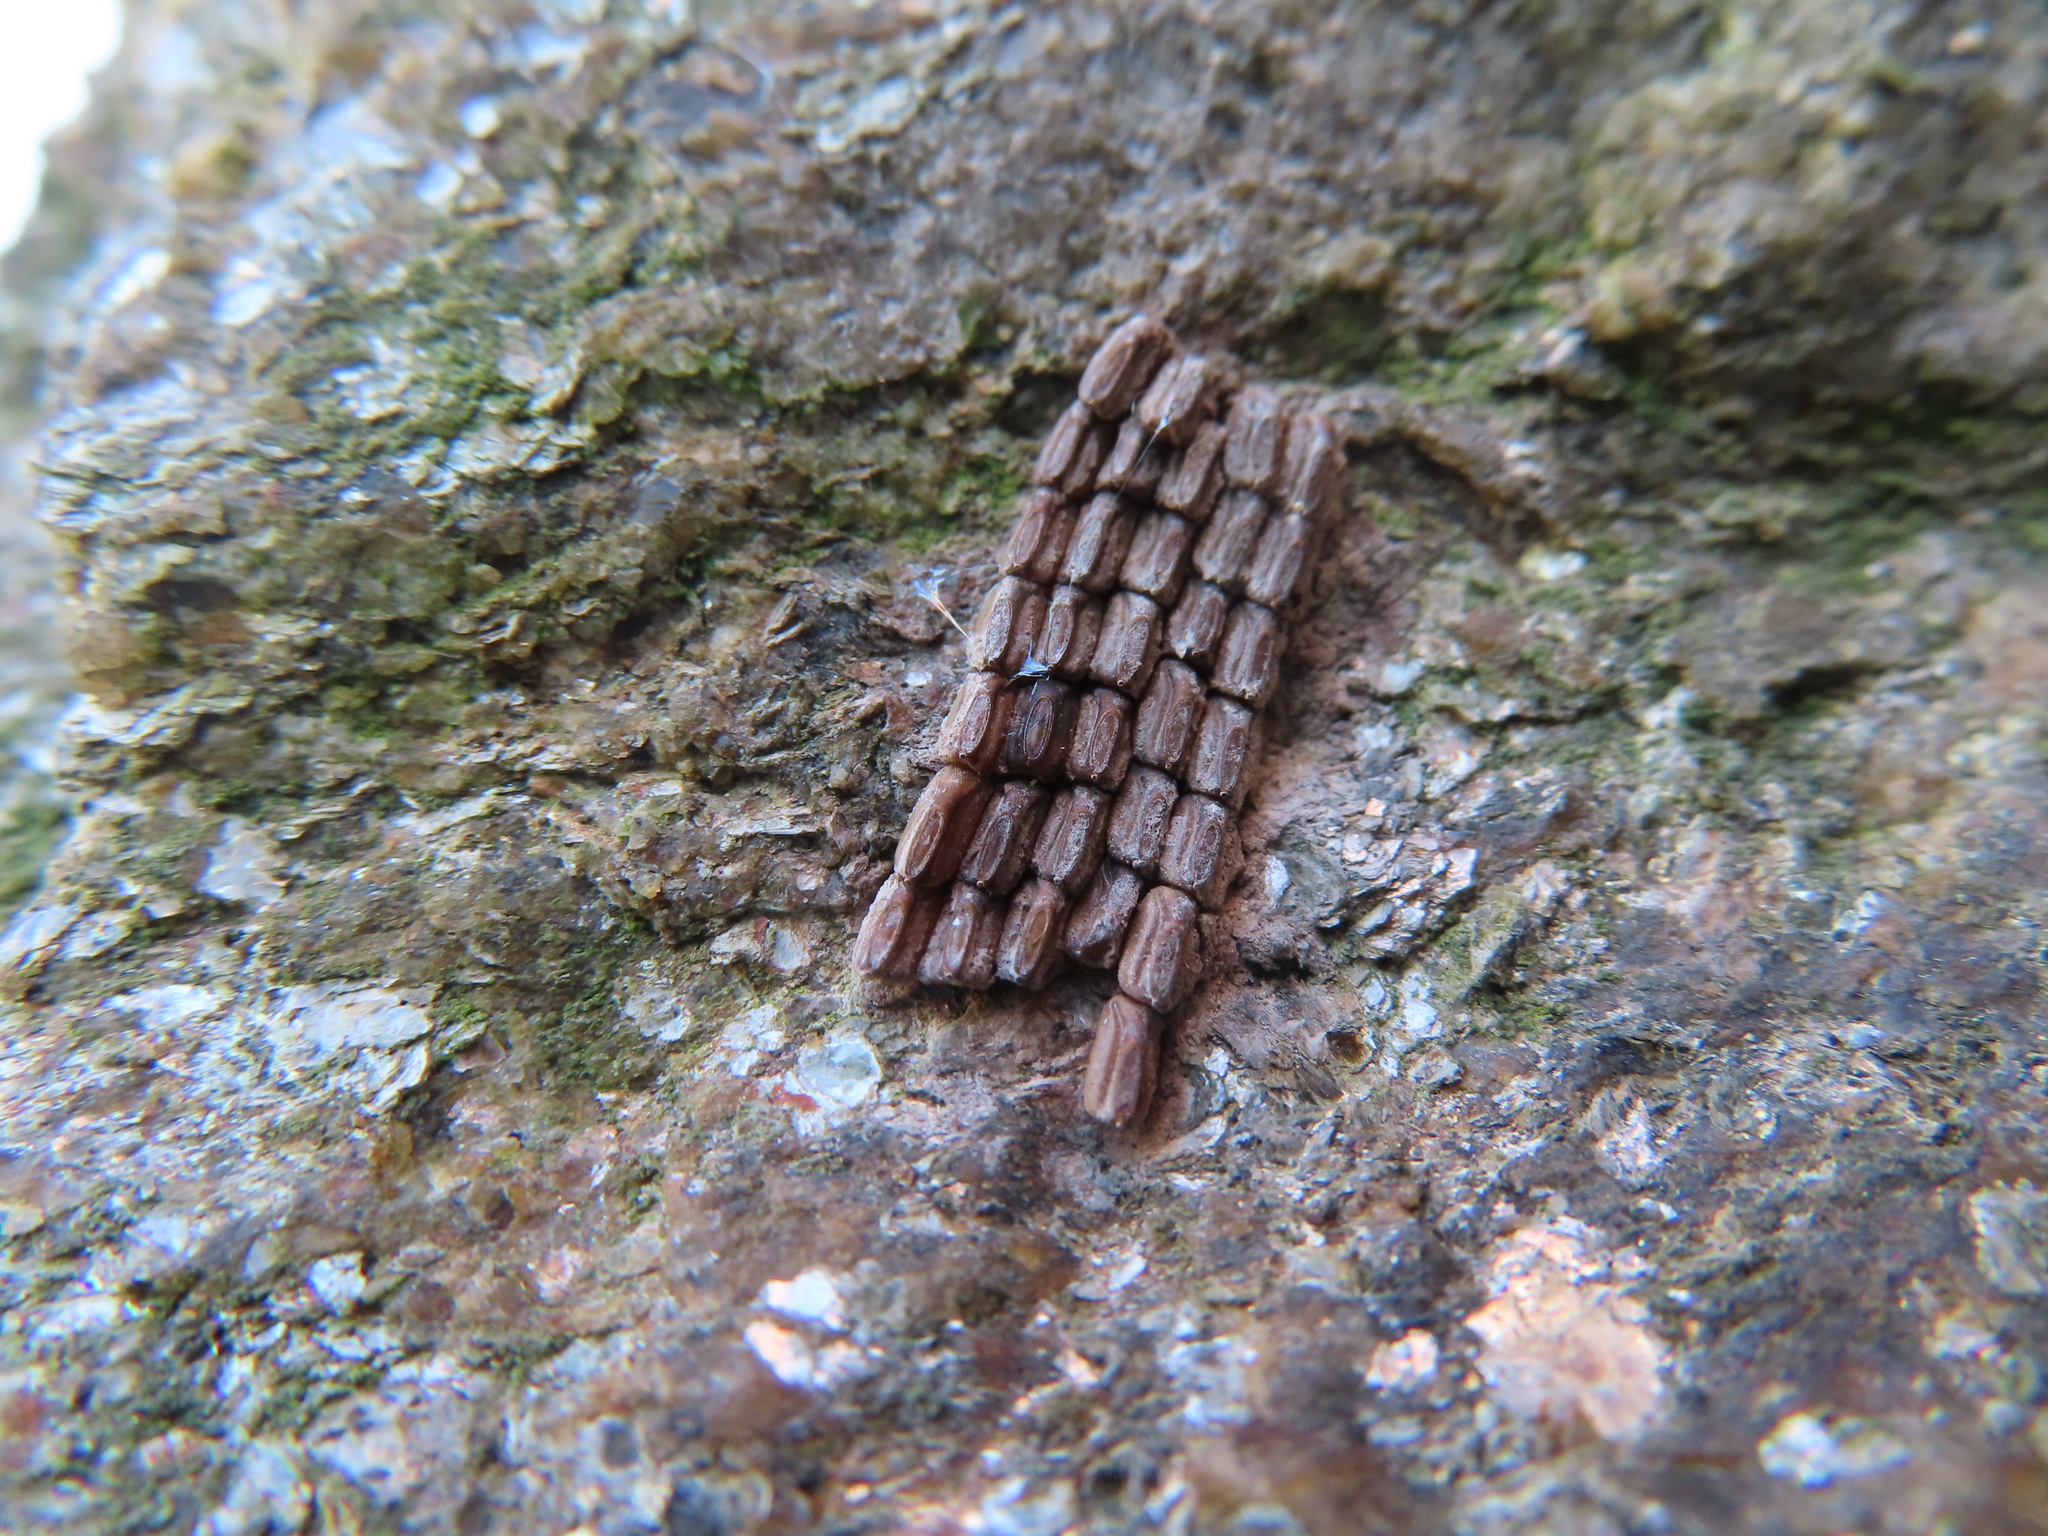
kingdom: Animalia
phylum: Arthropoda
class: Insecta
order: Hemiptera
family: Fulgoridae
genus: Lycorma
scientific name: Lycorma delicatula
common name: Spotted lanternfly
